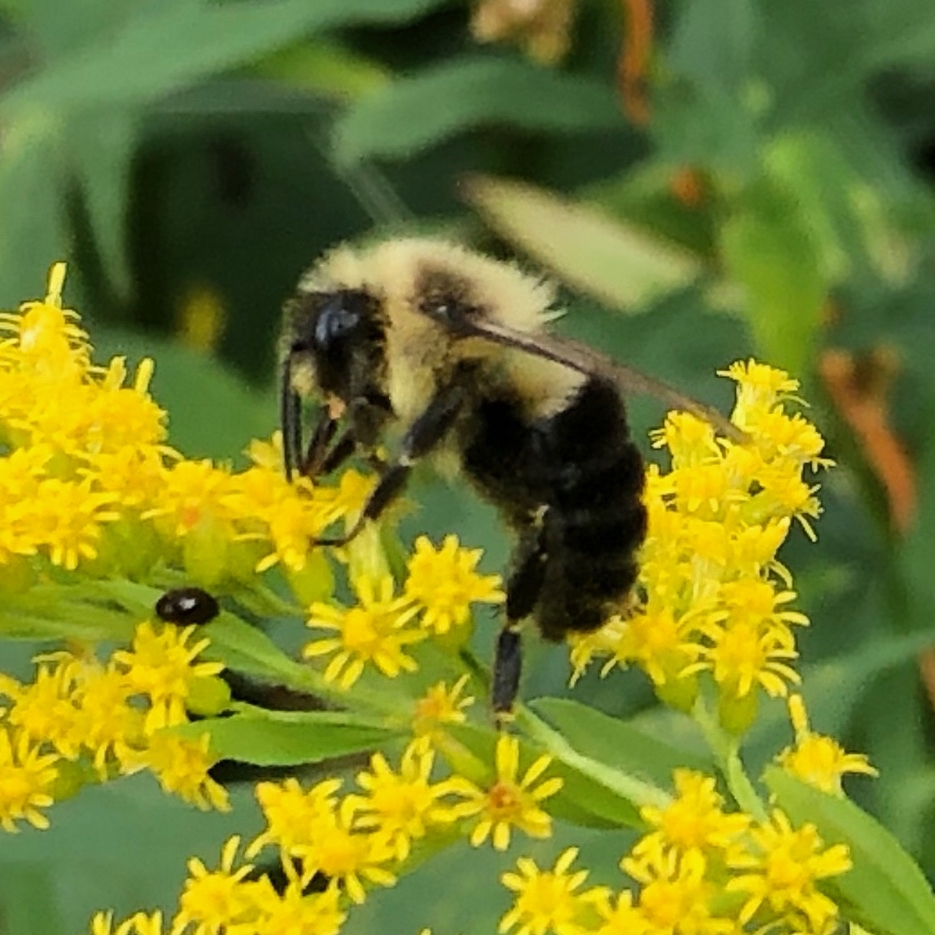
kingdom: Animalia
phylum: Arthropoda
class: Insecta
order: Hymenoptera
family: Apidae
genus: Bombus
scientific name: Bombus impatiens
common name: Common eastern bumble bee
